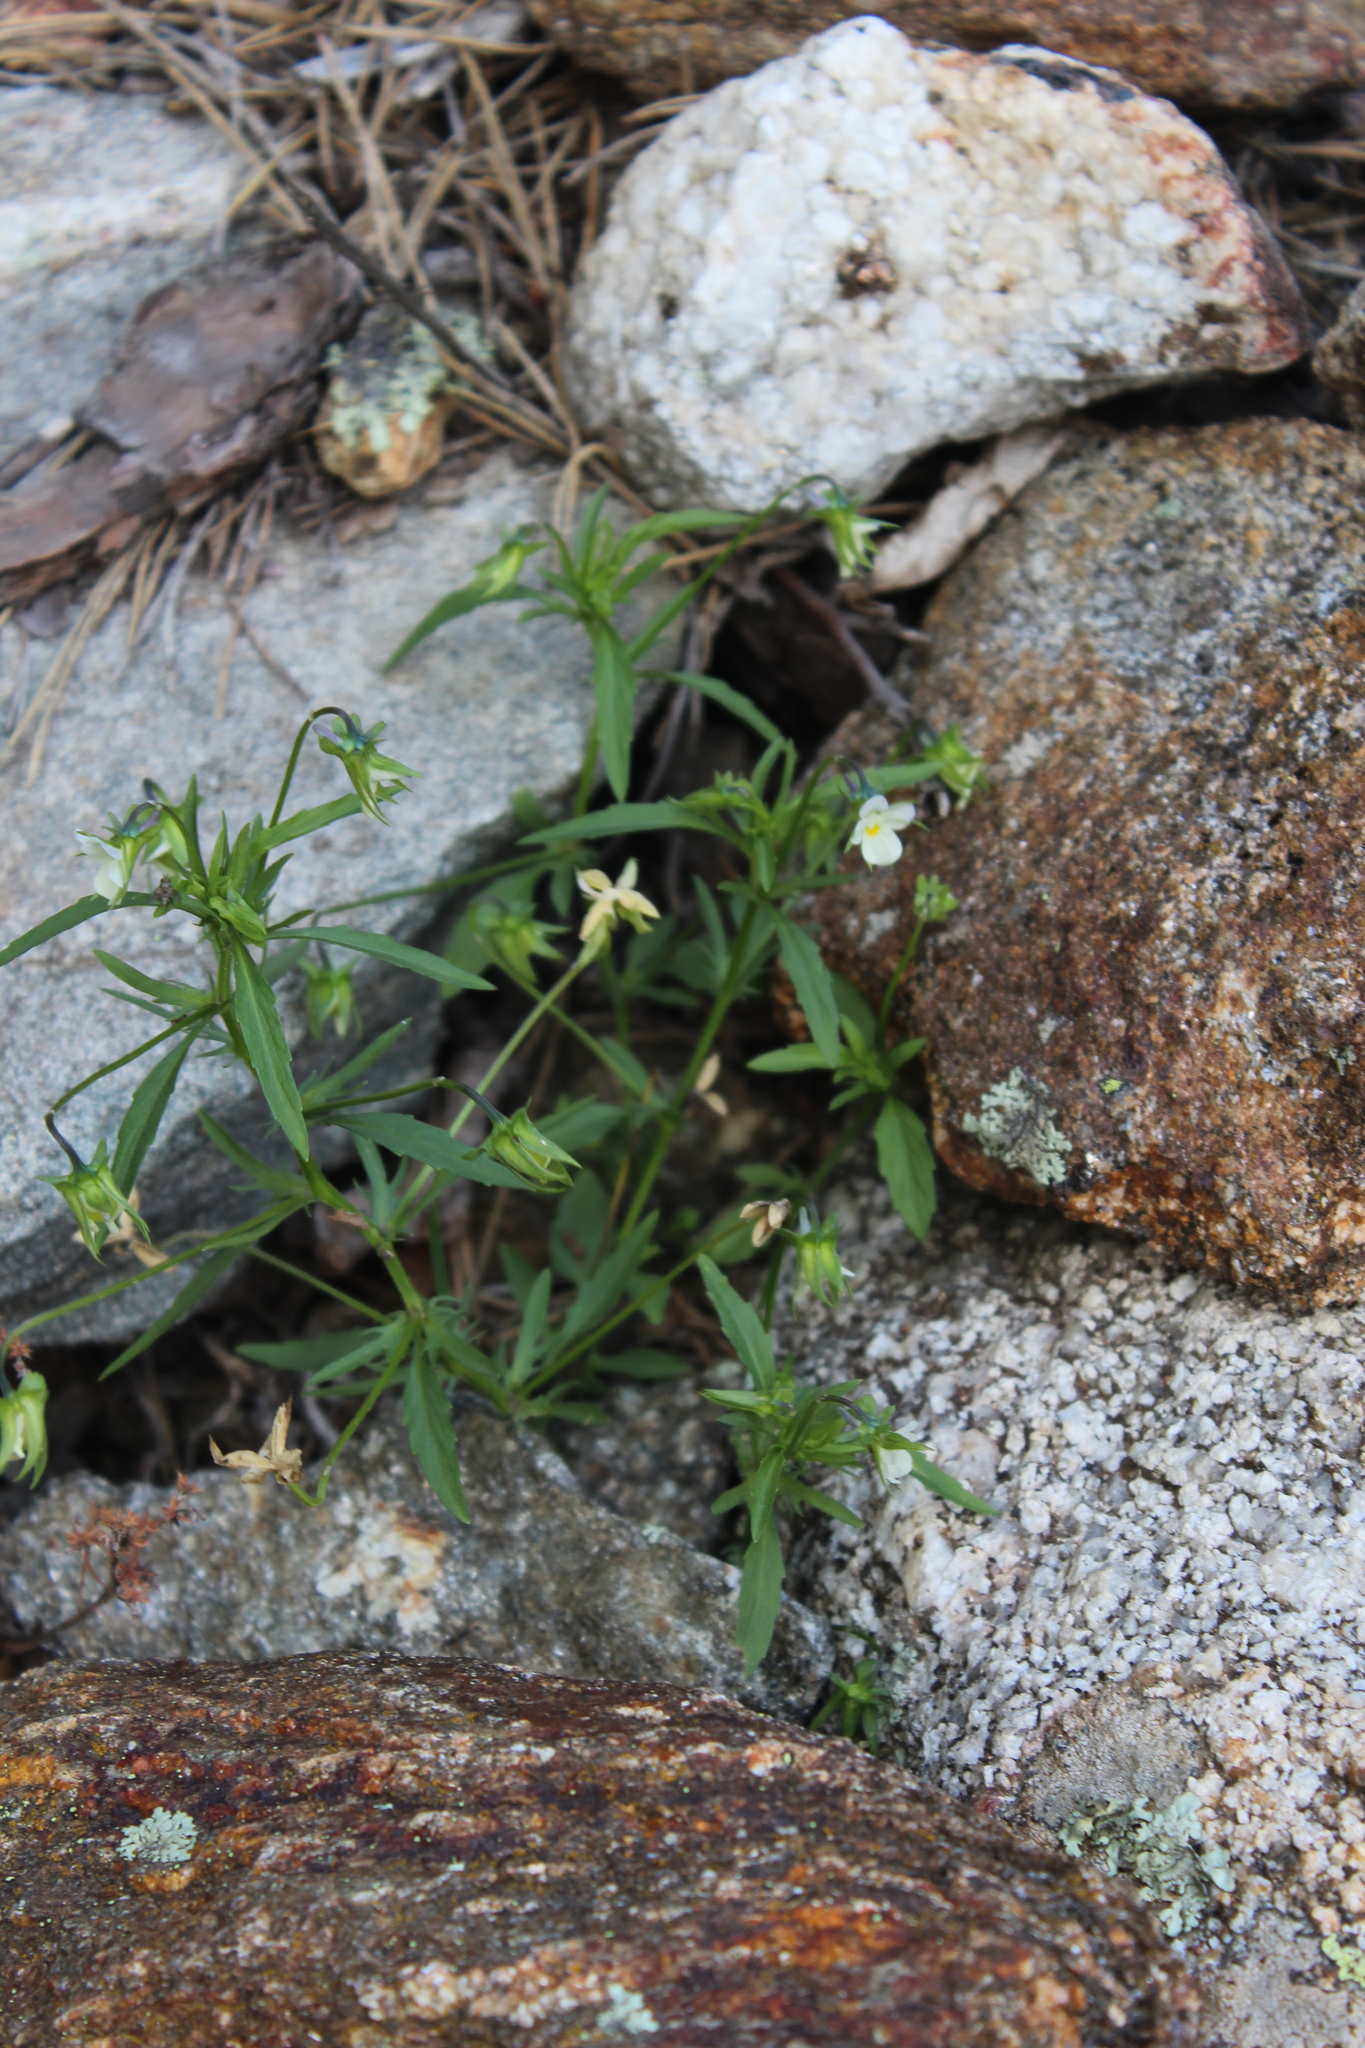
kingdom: Plantae
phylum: Tracheophyta
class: Magnoliopsida
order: Malpighiales
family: Violaceae
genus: Viola
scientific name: Viola arvensis
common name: Field pansy
